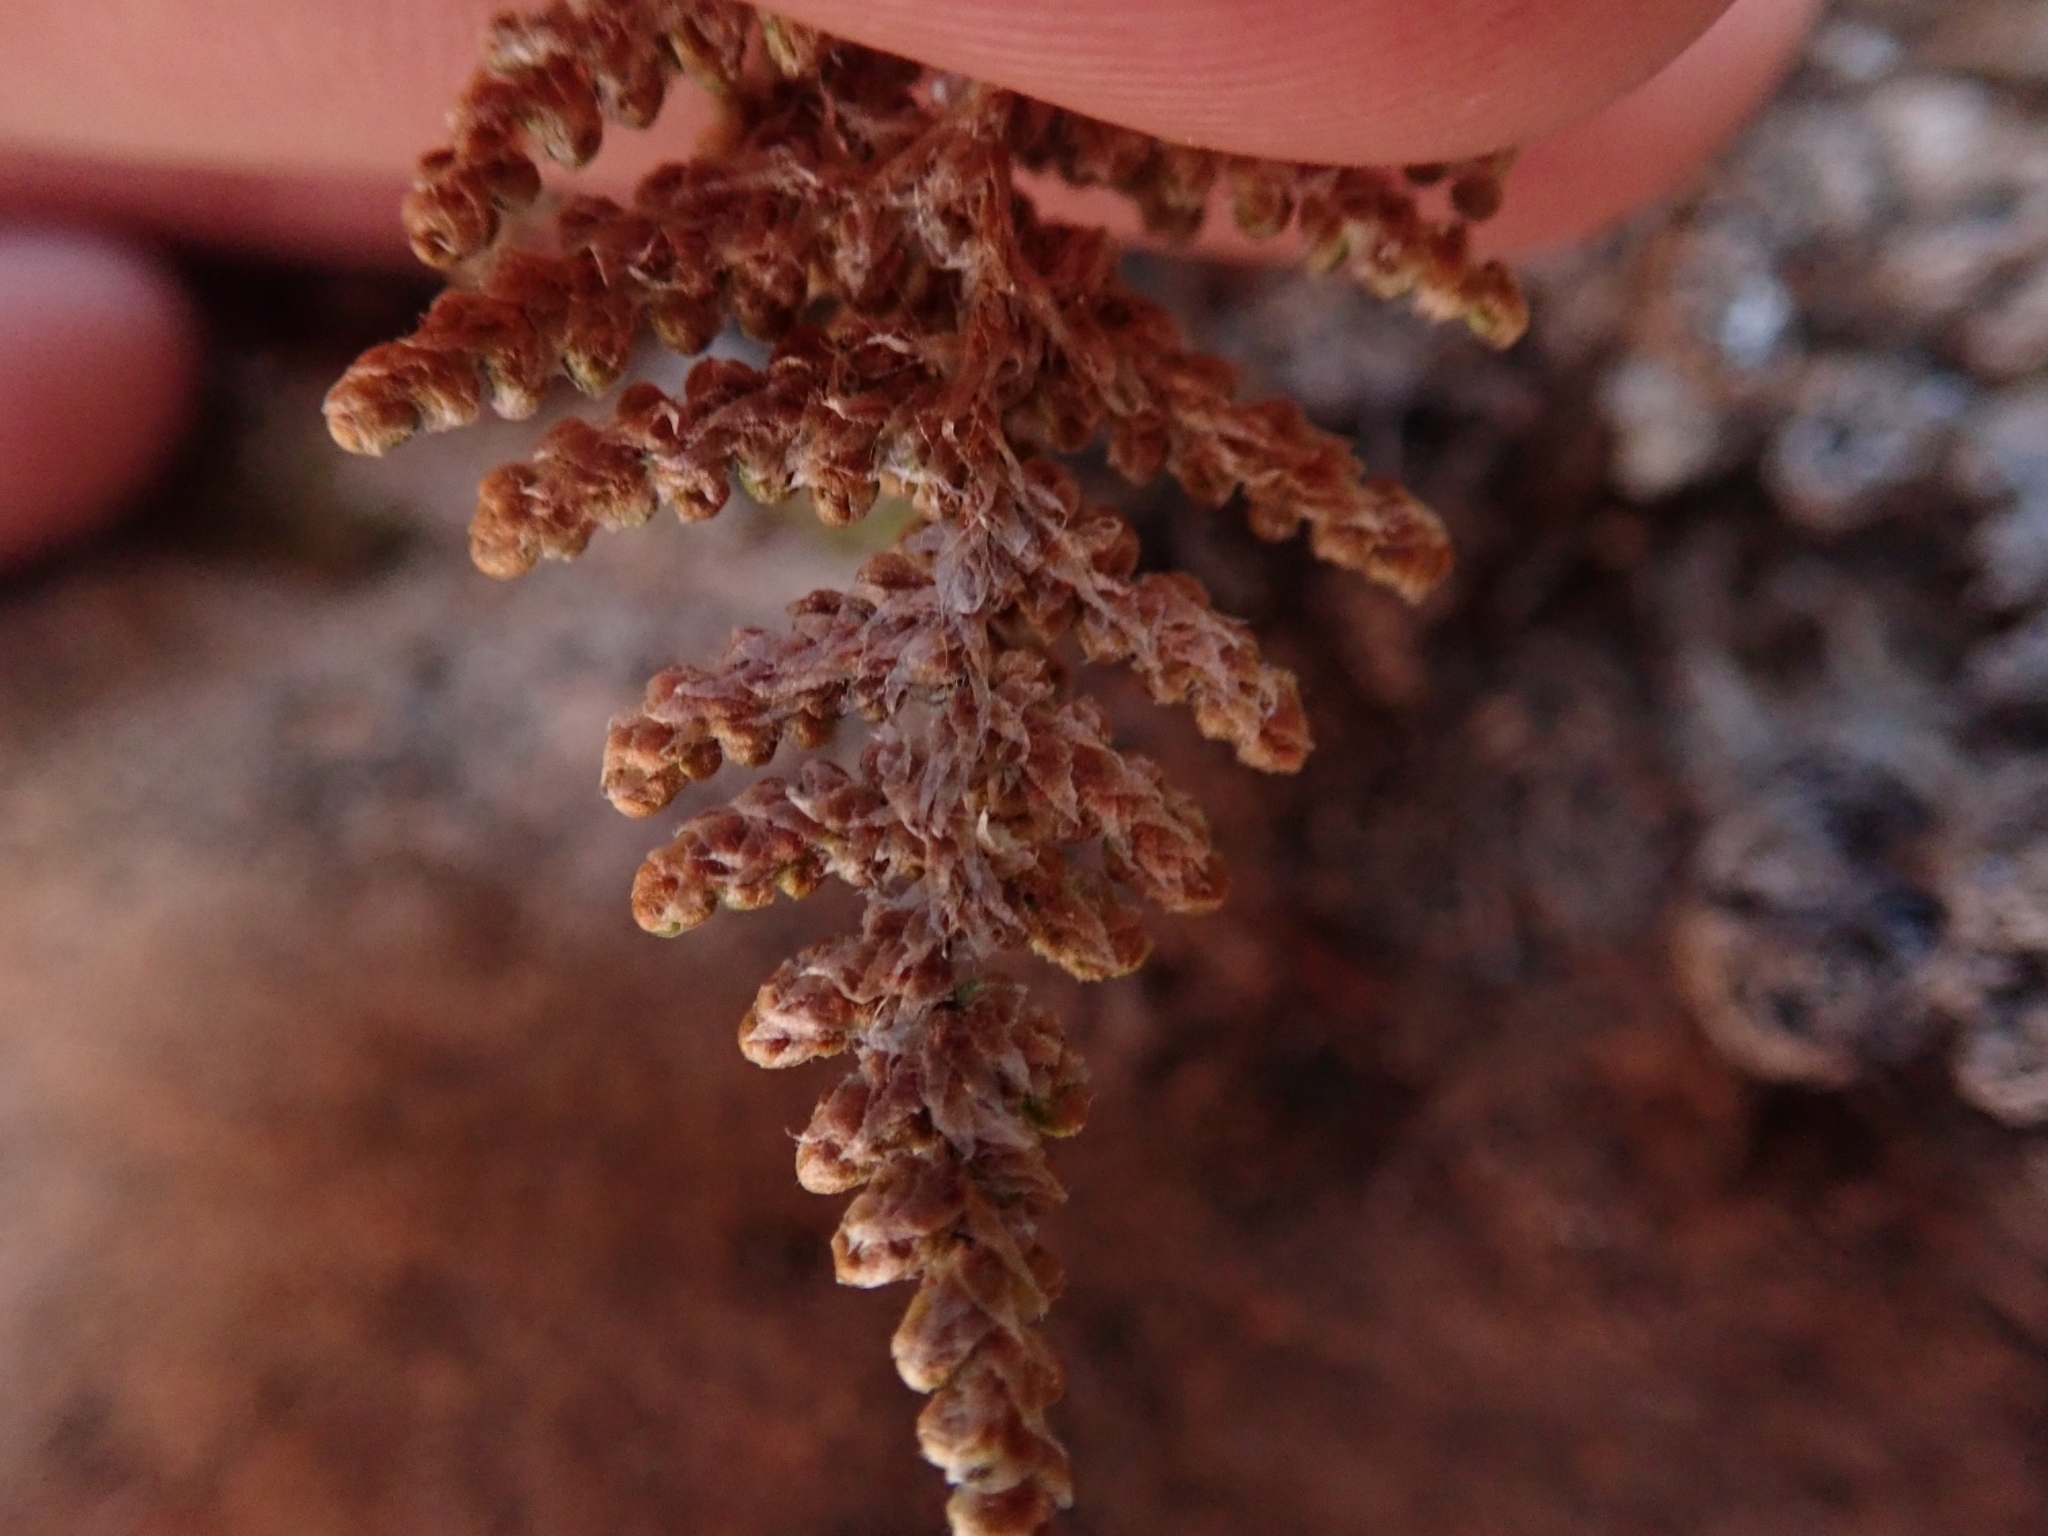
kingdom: Plantae
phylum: Tracheophyta
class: Polypodiopsida
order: Polypodiales
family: Pteridaceae
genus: Myriopteris
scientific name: Myriopteris covillei
